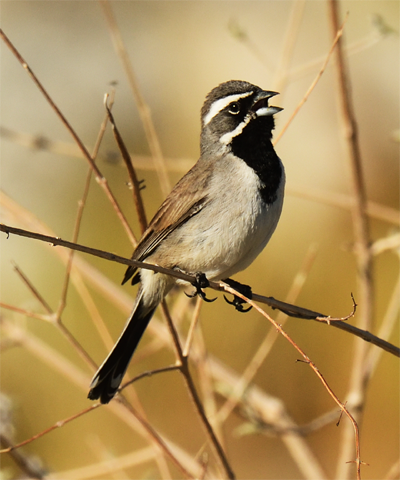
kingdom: Animalia
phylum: Chordata
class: Aves
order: Passeriformes
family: Passerellidae
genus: Amphispiza
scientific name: Amphispiza bilineata
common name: Black-throated sparrow
